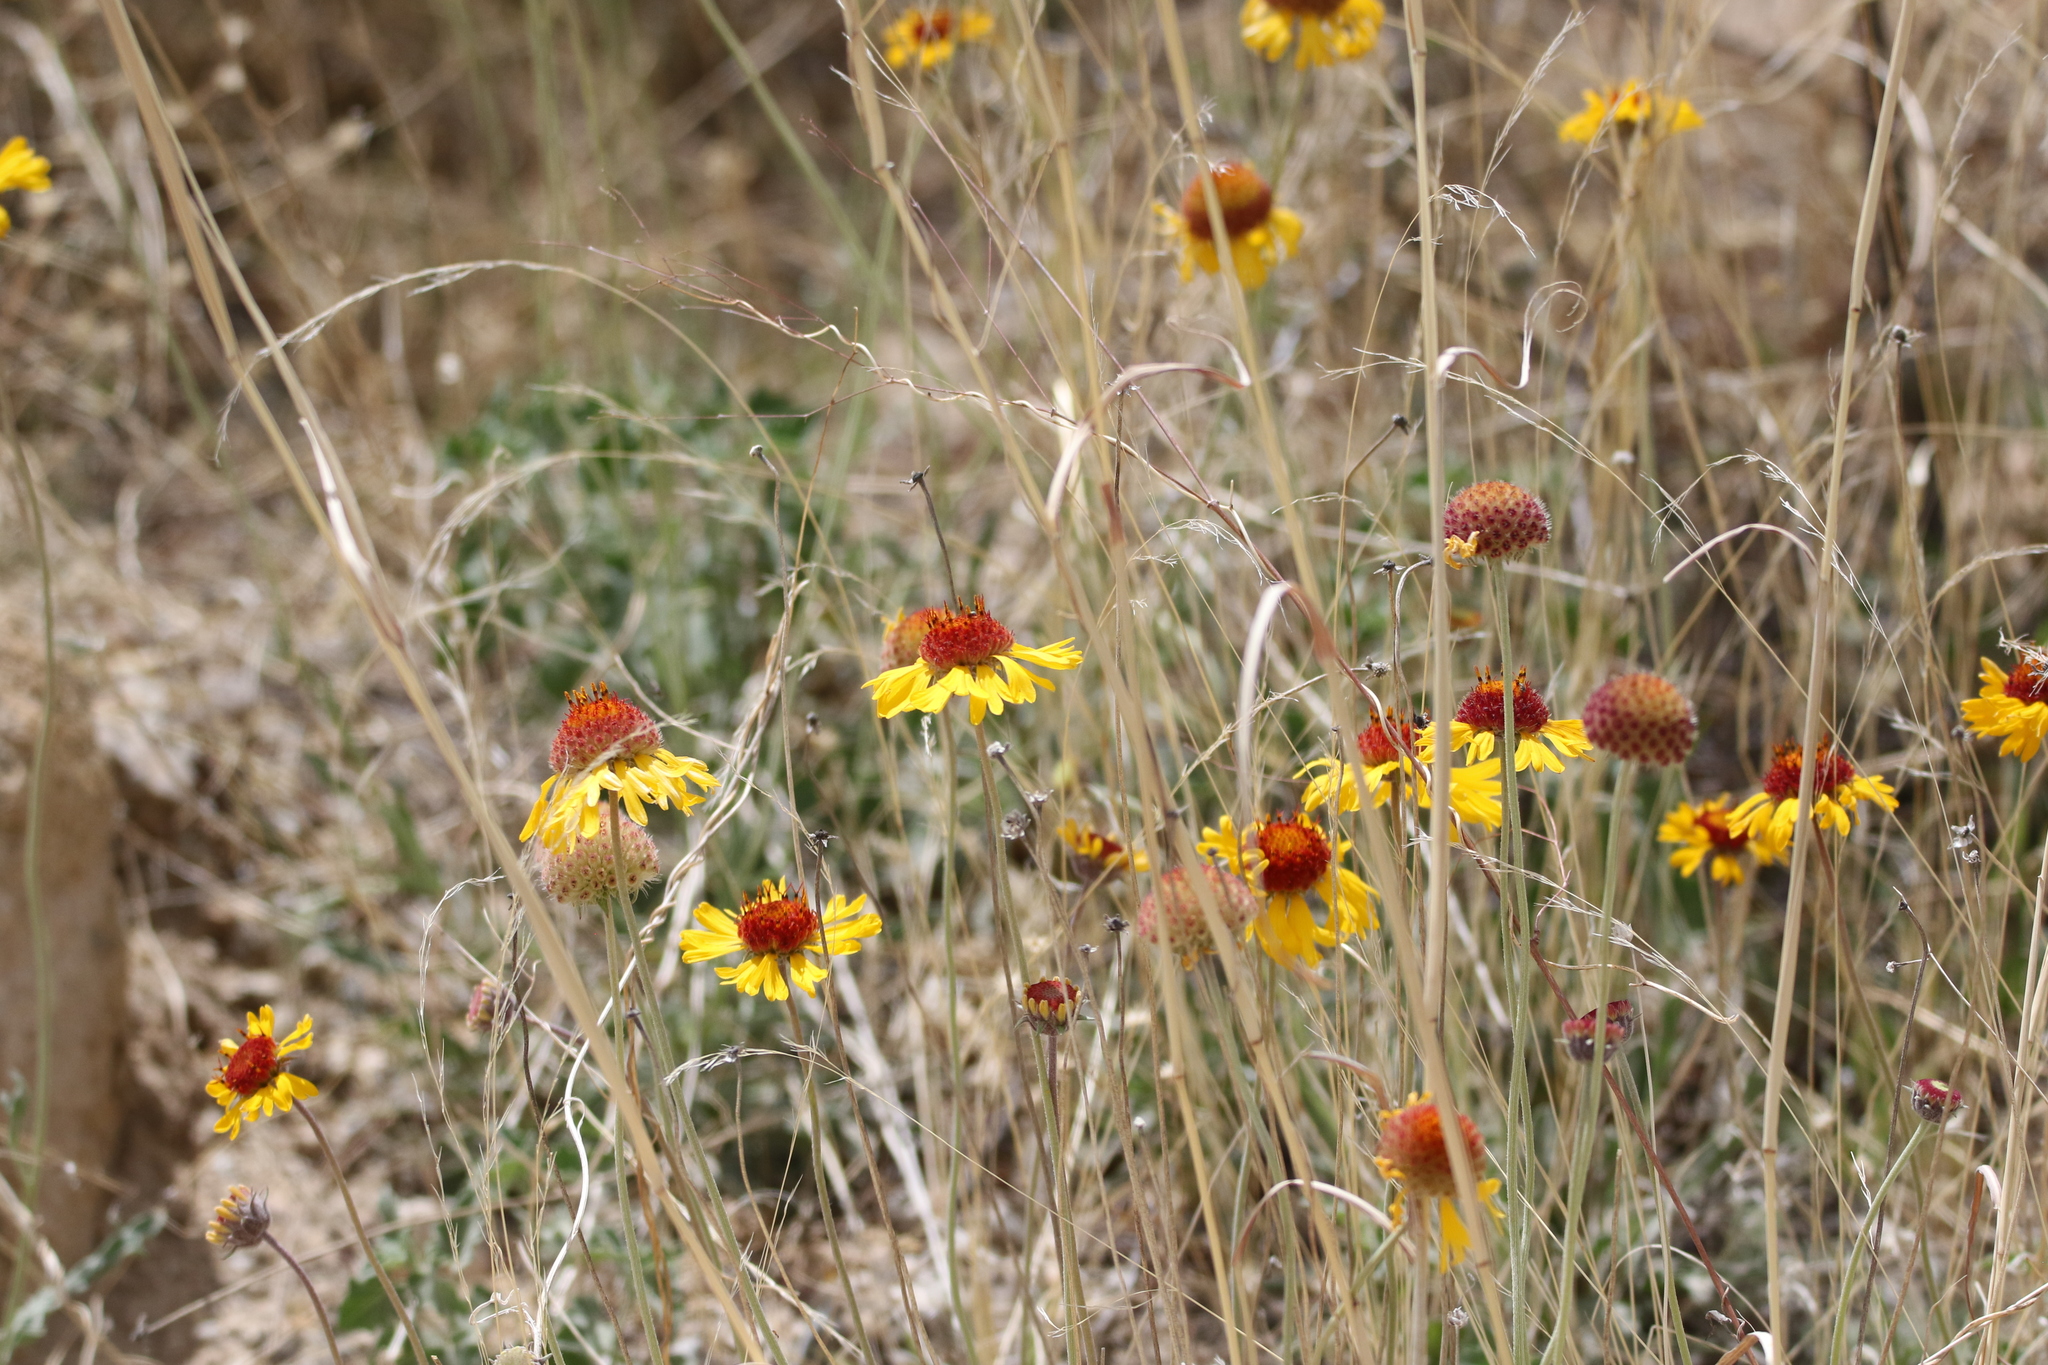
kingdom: Plantae
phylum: Tracheophyta
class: Magnoliopsida
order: Asterales
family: Asteraceae
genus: Gaillardia
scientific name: Gaillardia pinnatifida
